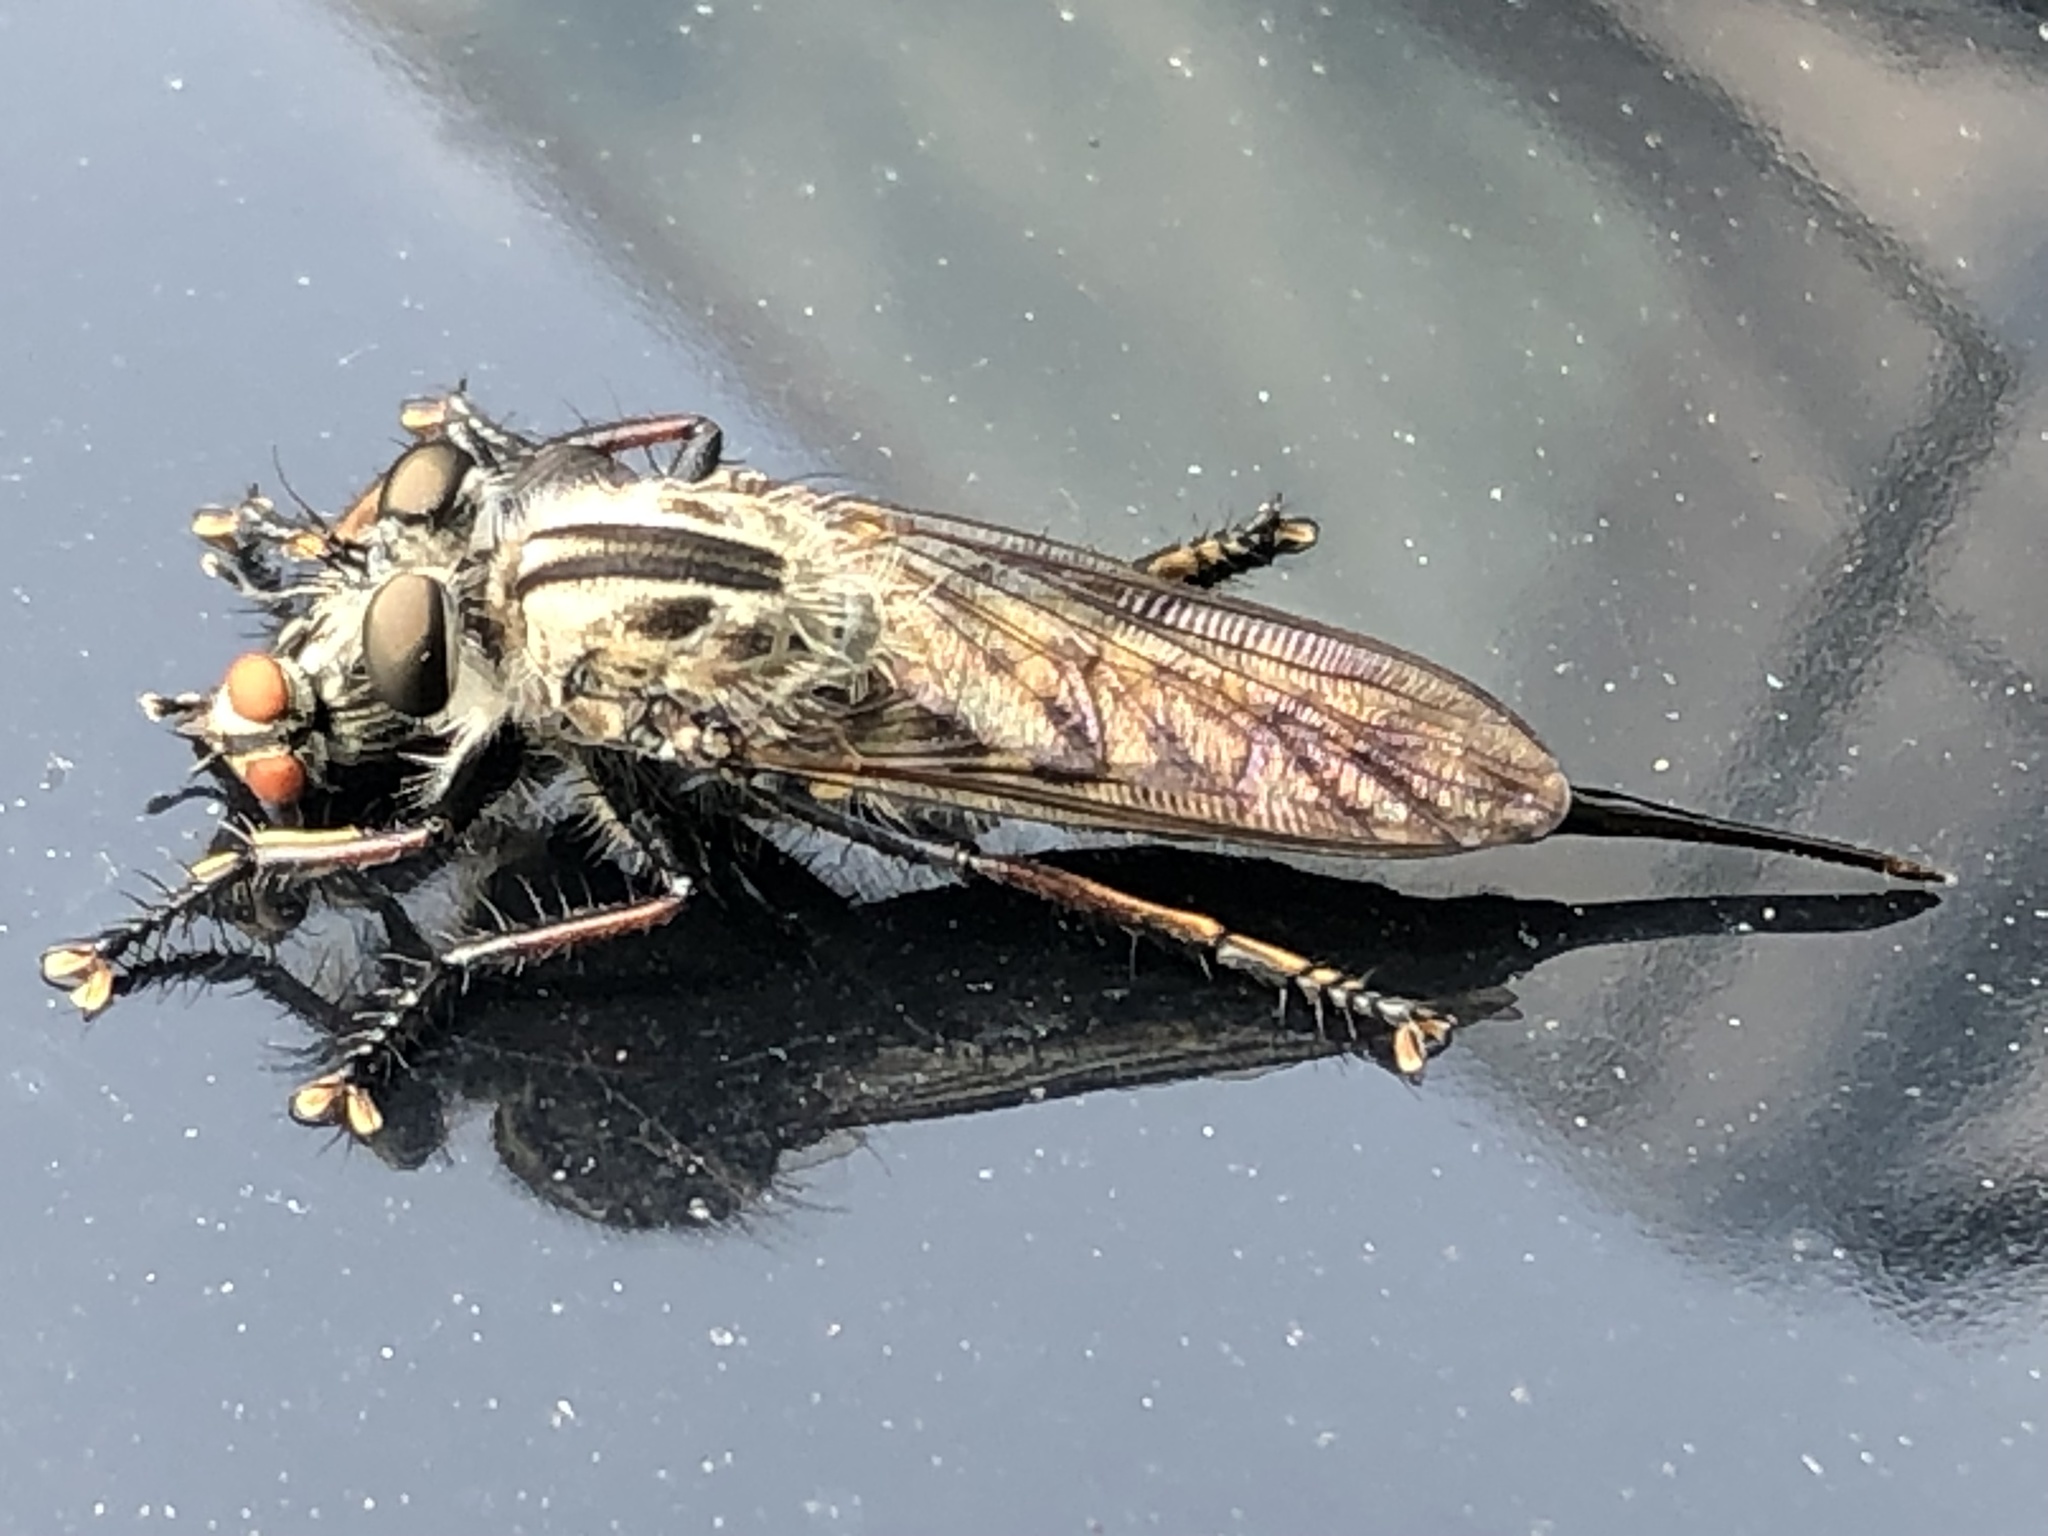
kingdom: Animalia
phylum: Arthropoda
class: Insecta
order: Diptera
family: Asilidae
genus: Efferia
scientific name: Efferia aestuans
